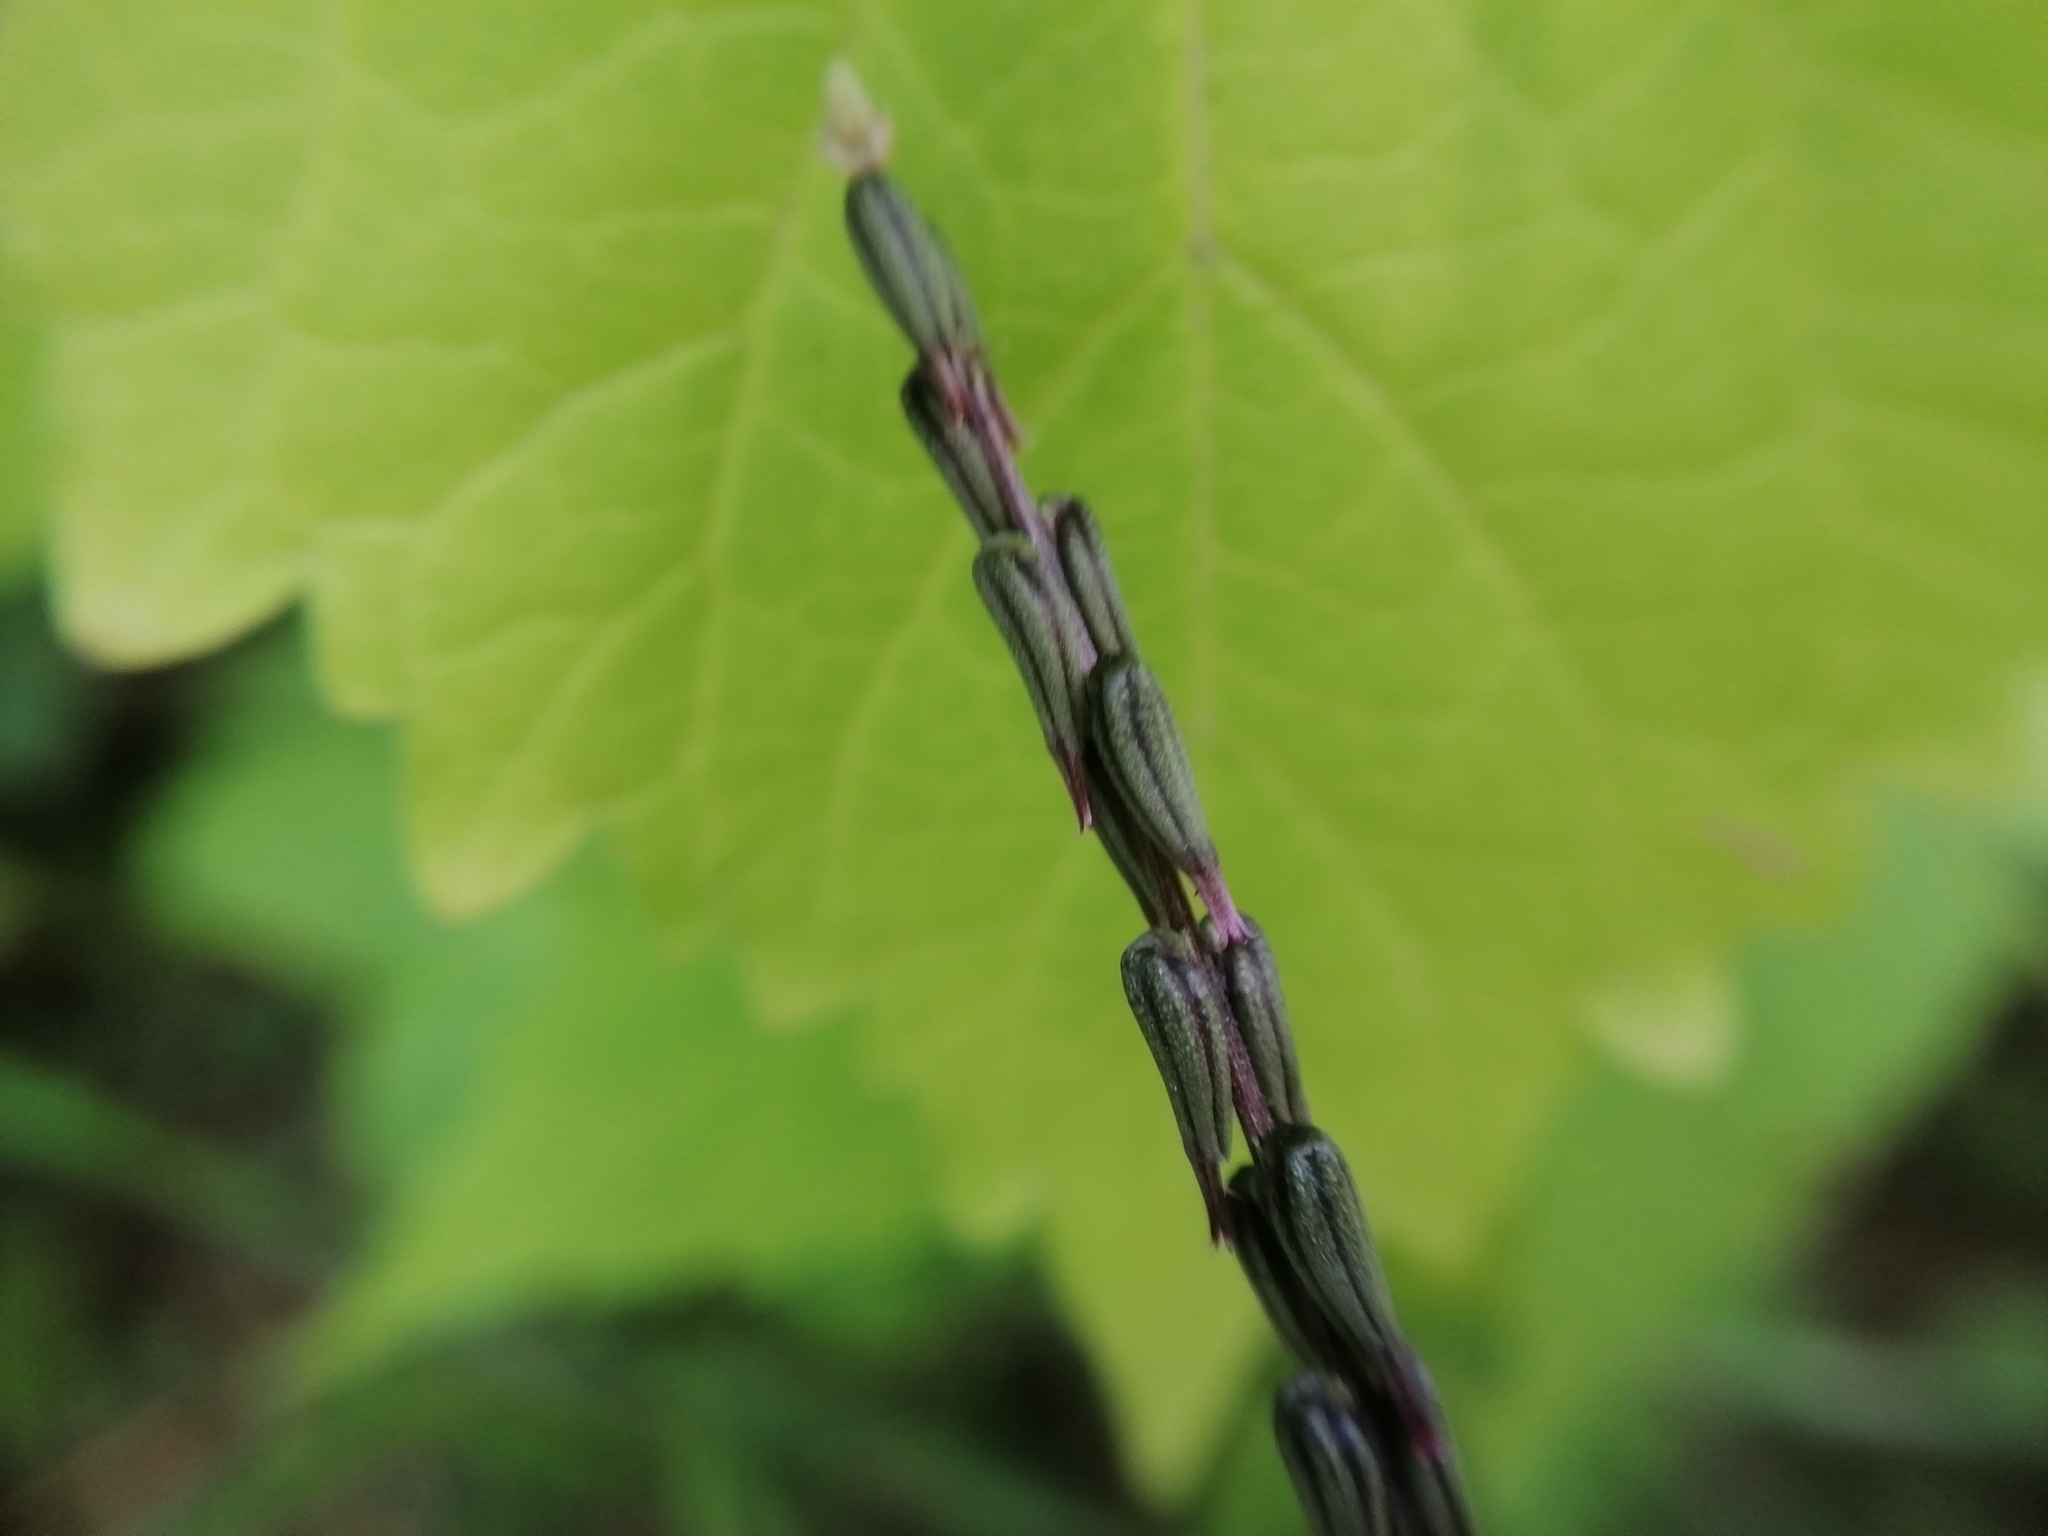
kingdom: Plantae
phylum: Tracheophyta
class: Magnoliopsida
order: Lamiales
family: Phrymaceae
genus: Phryma
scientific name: Phryma leptostachya
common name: American lopseed
